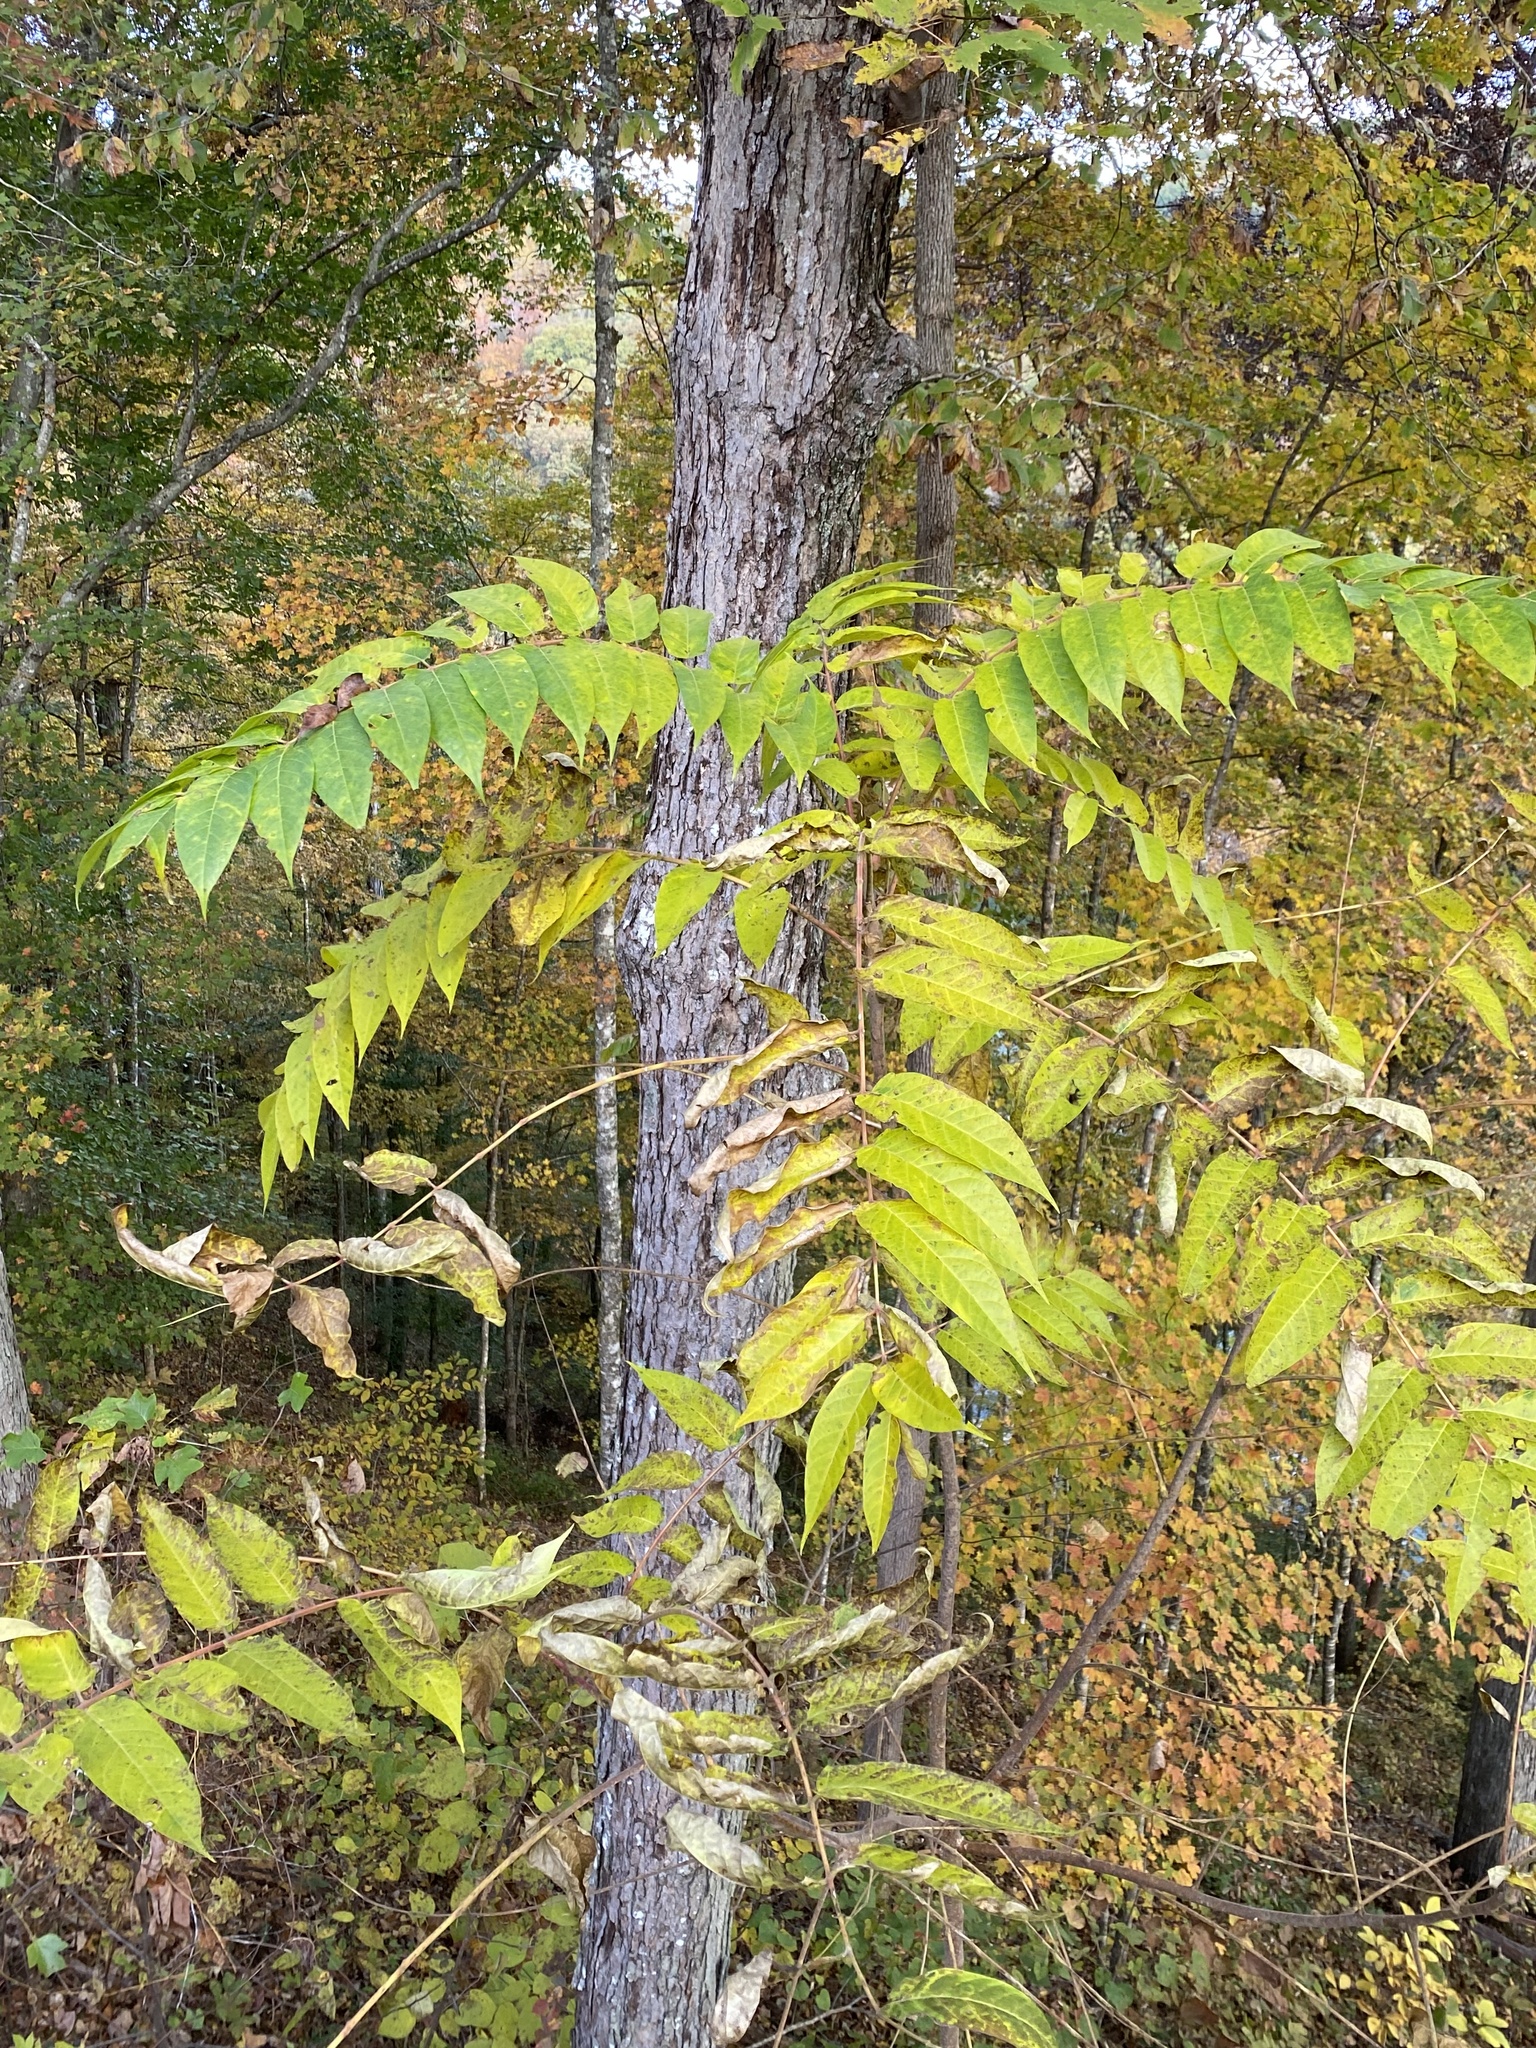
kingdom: Plantae
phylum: Tracheophyta
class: Magnoliopsida
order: Sapindales
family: Simaroubaceae
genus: Ailanthus
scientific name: Ailanthus altissima
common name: Tree-of-heaven
